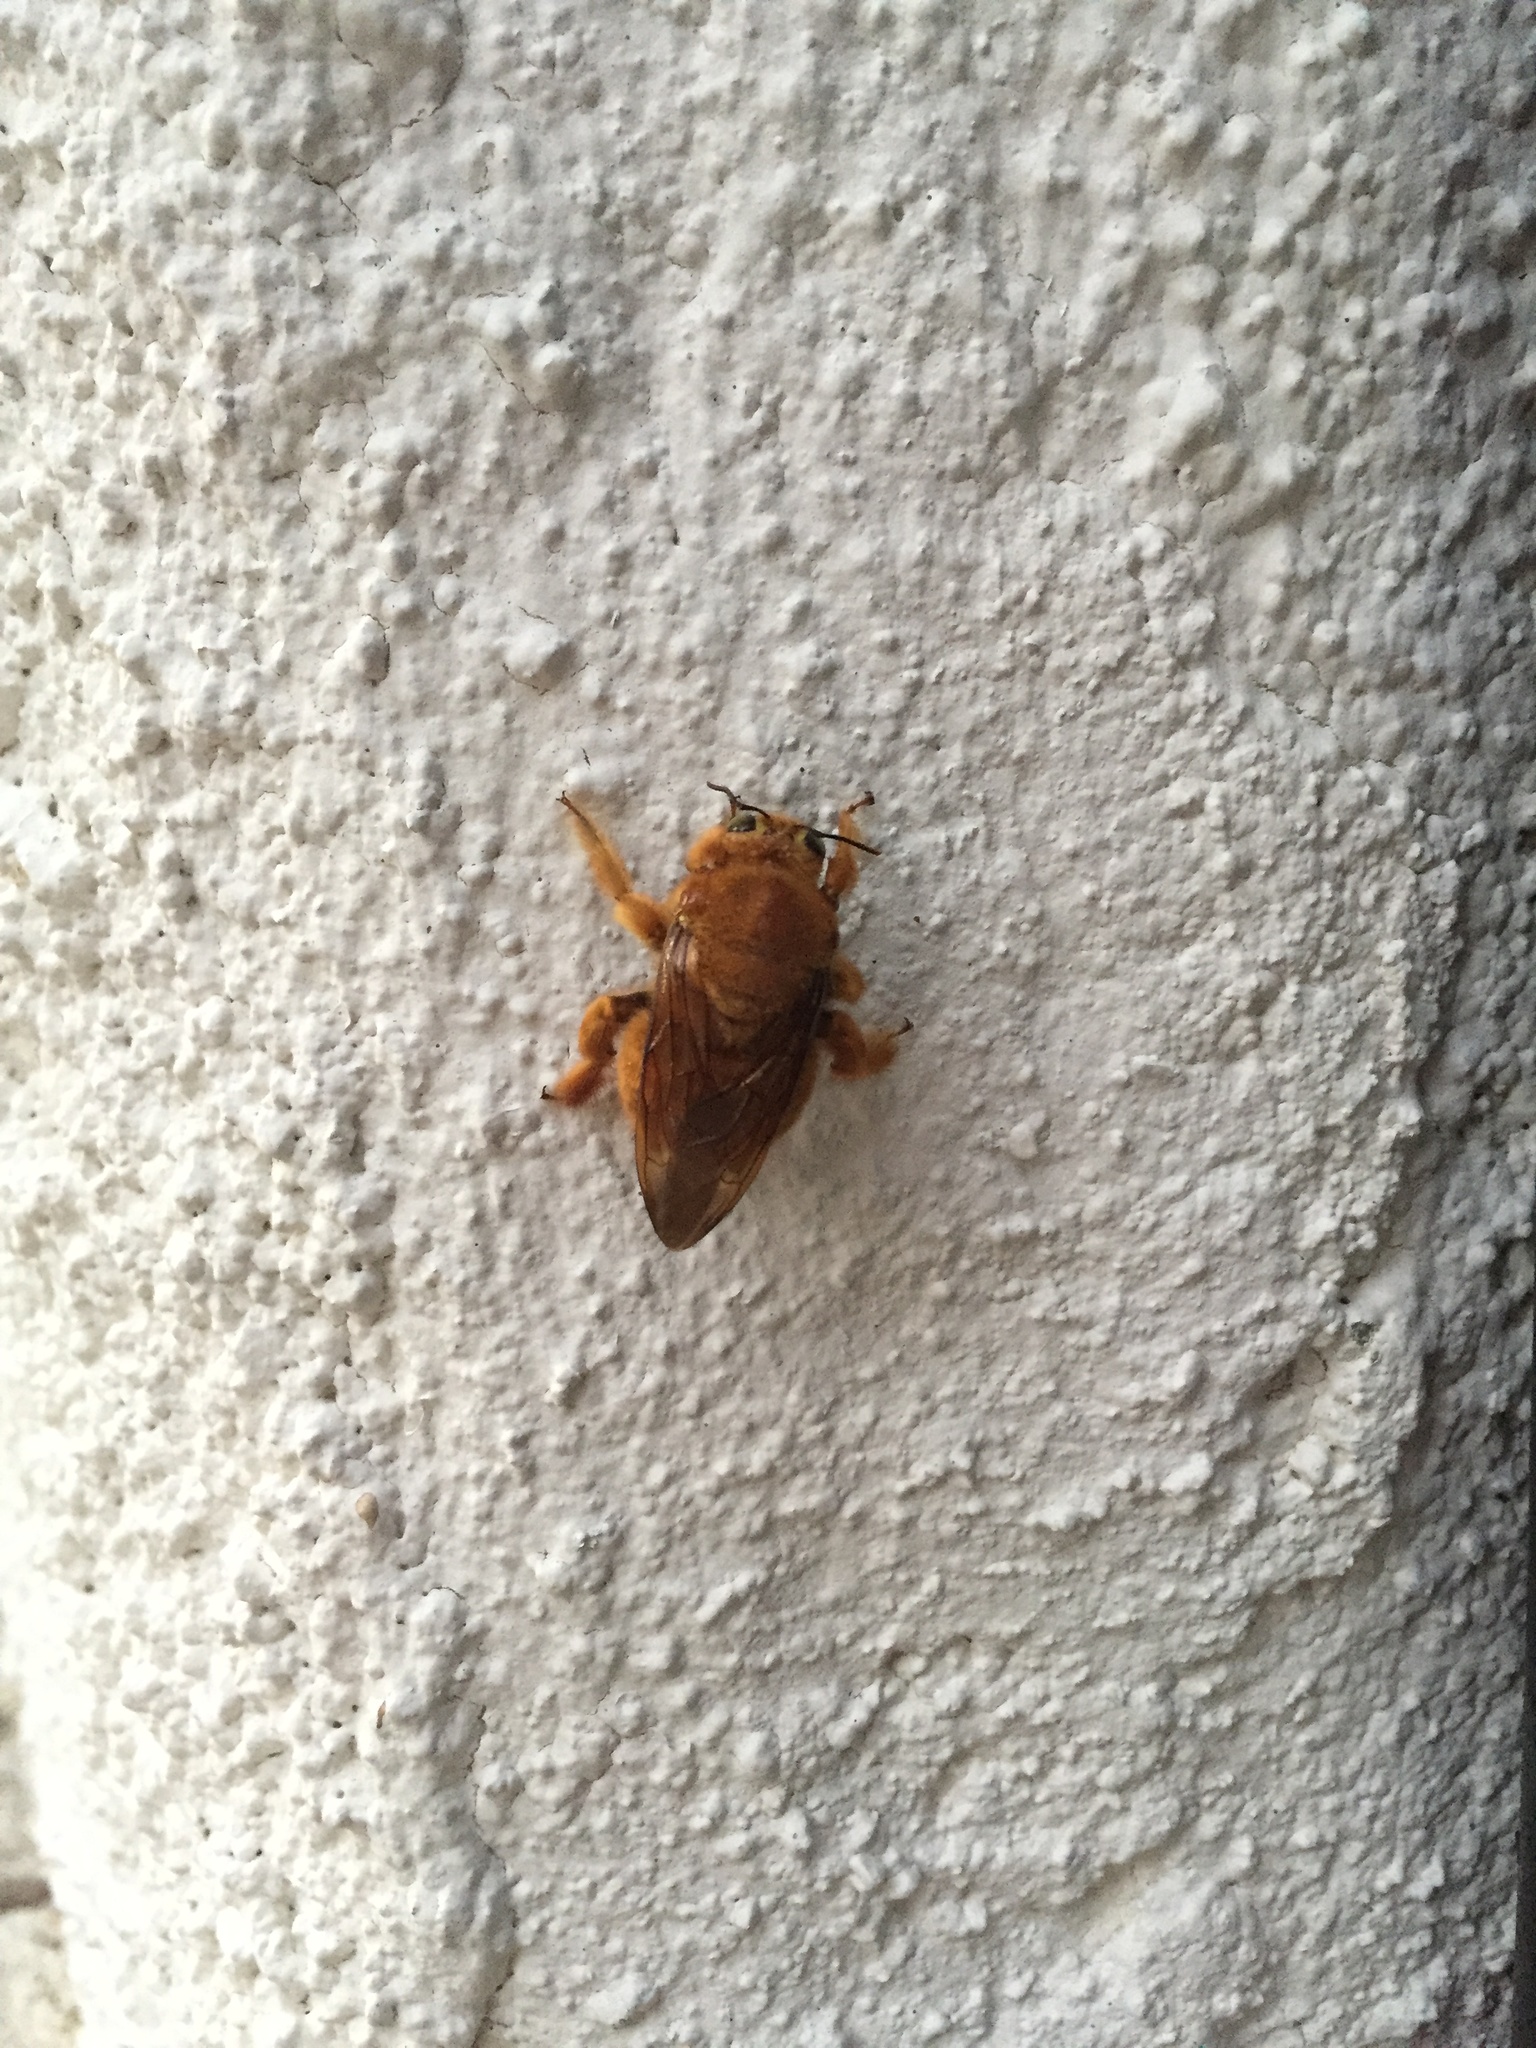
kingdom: Animalia
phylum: Arthropoda
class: Insecta
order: Hymenoptera
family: Apidae
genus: Xylocopa
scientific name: Xylocopa sonorina
